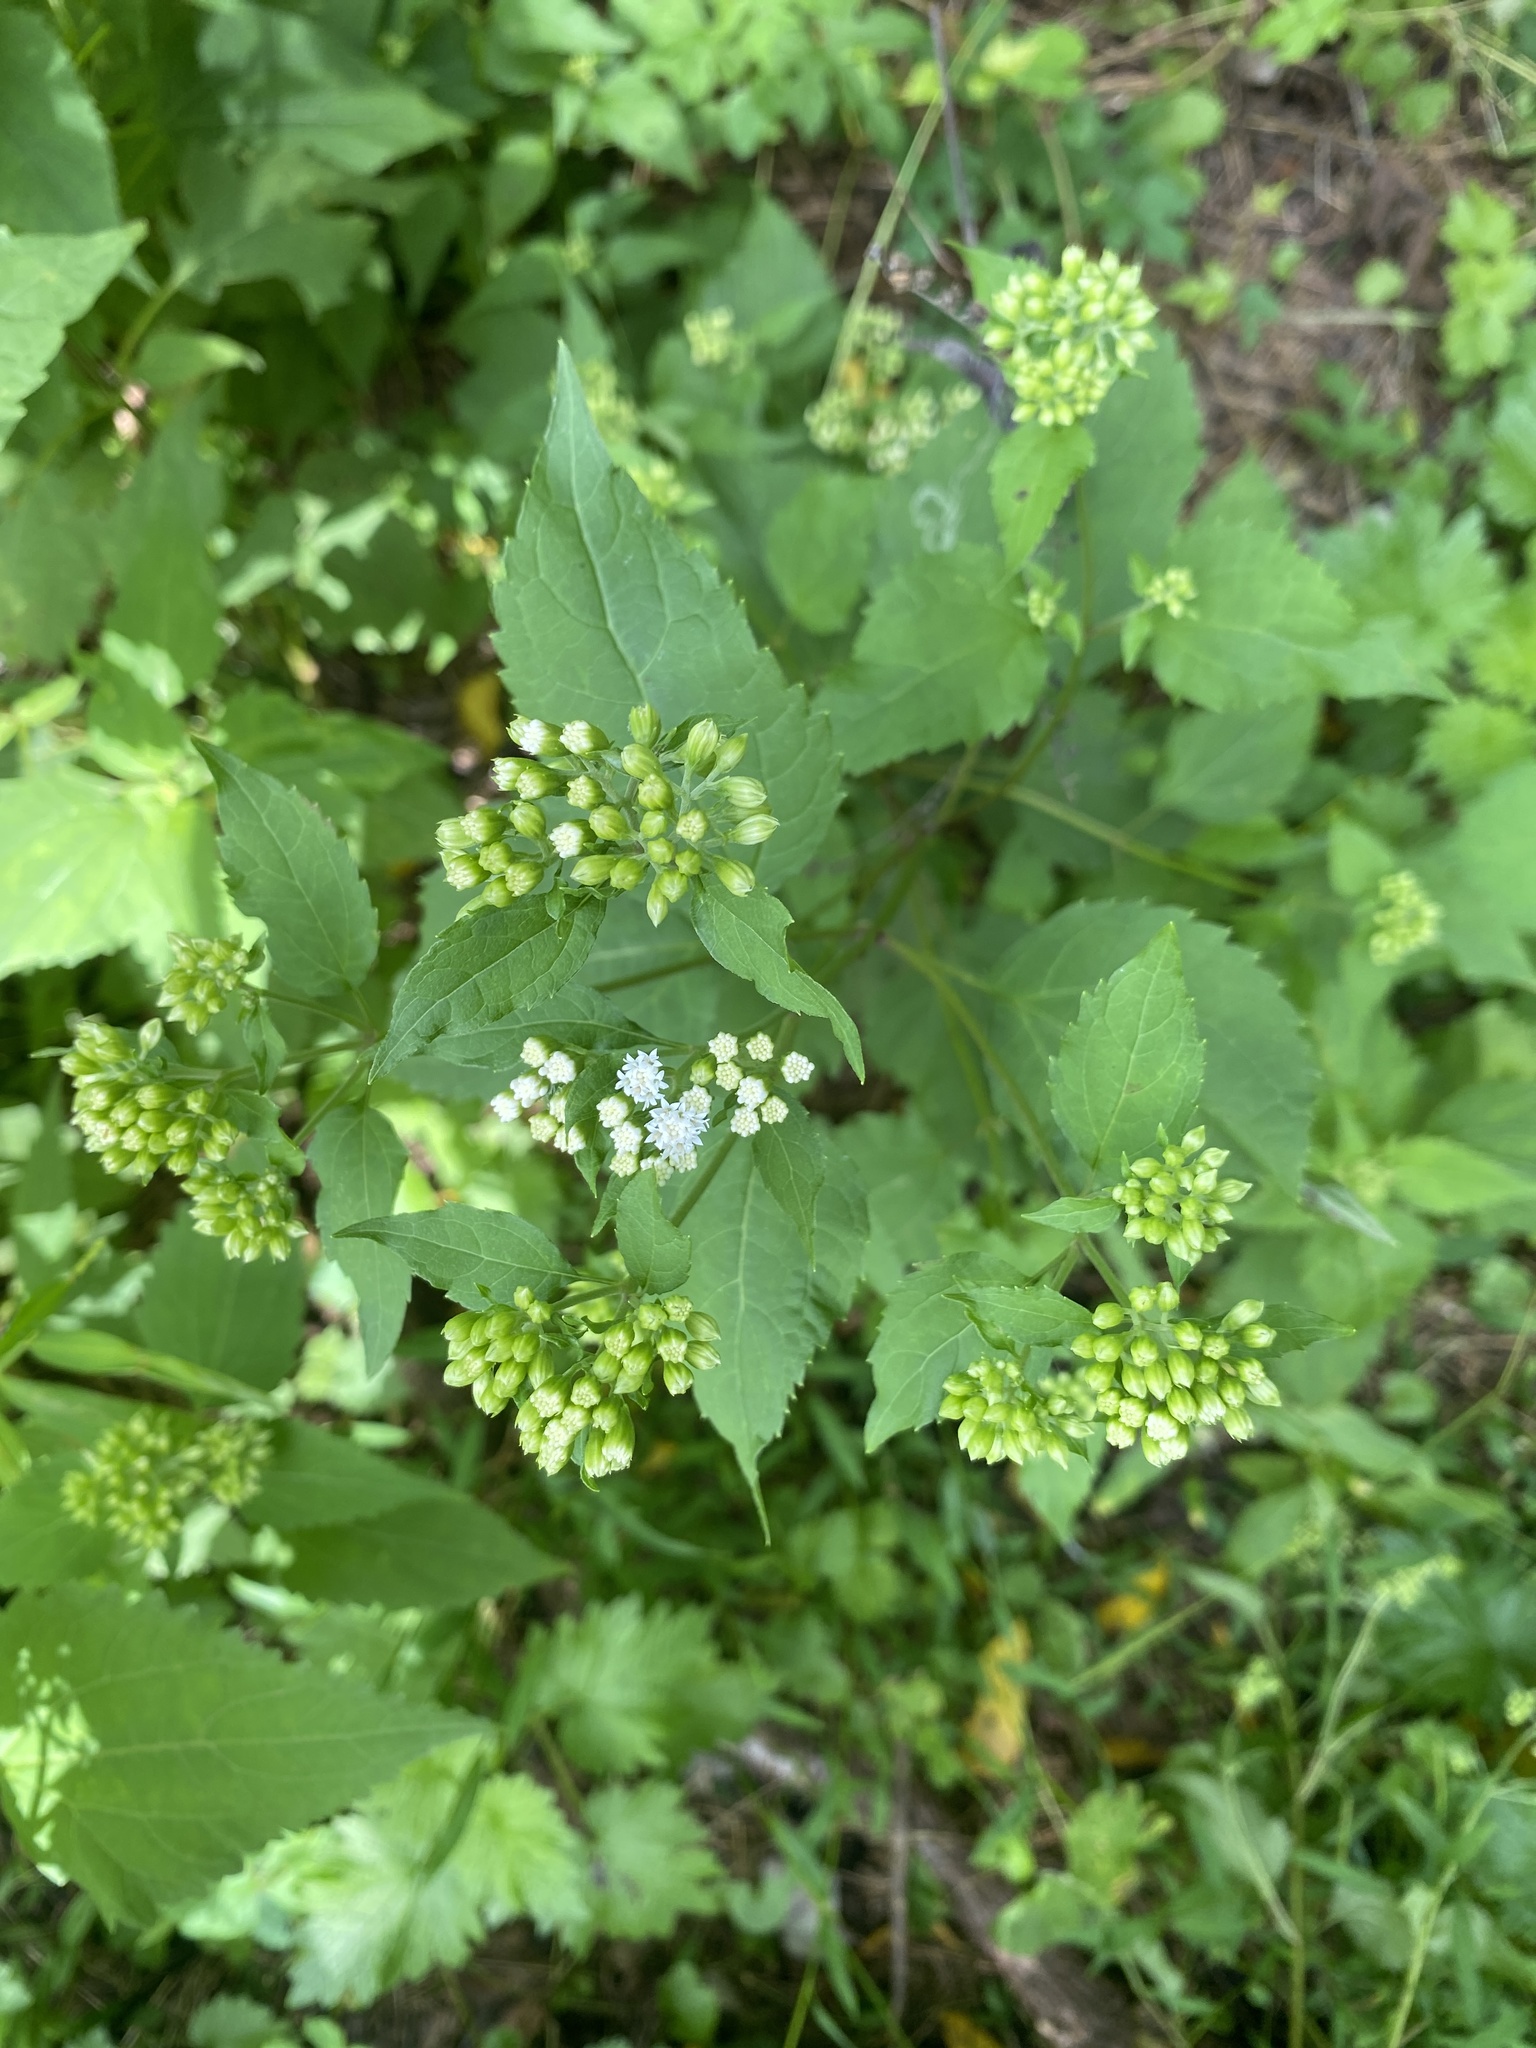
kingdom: Plantae
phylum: Tracheophyta
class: Magnoliopsida
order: Asterales
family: Asteraceae
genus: Ageratina
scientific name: Ageratina altissima
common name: White snakeroot
